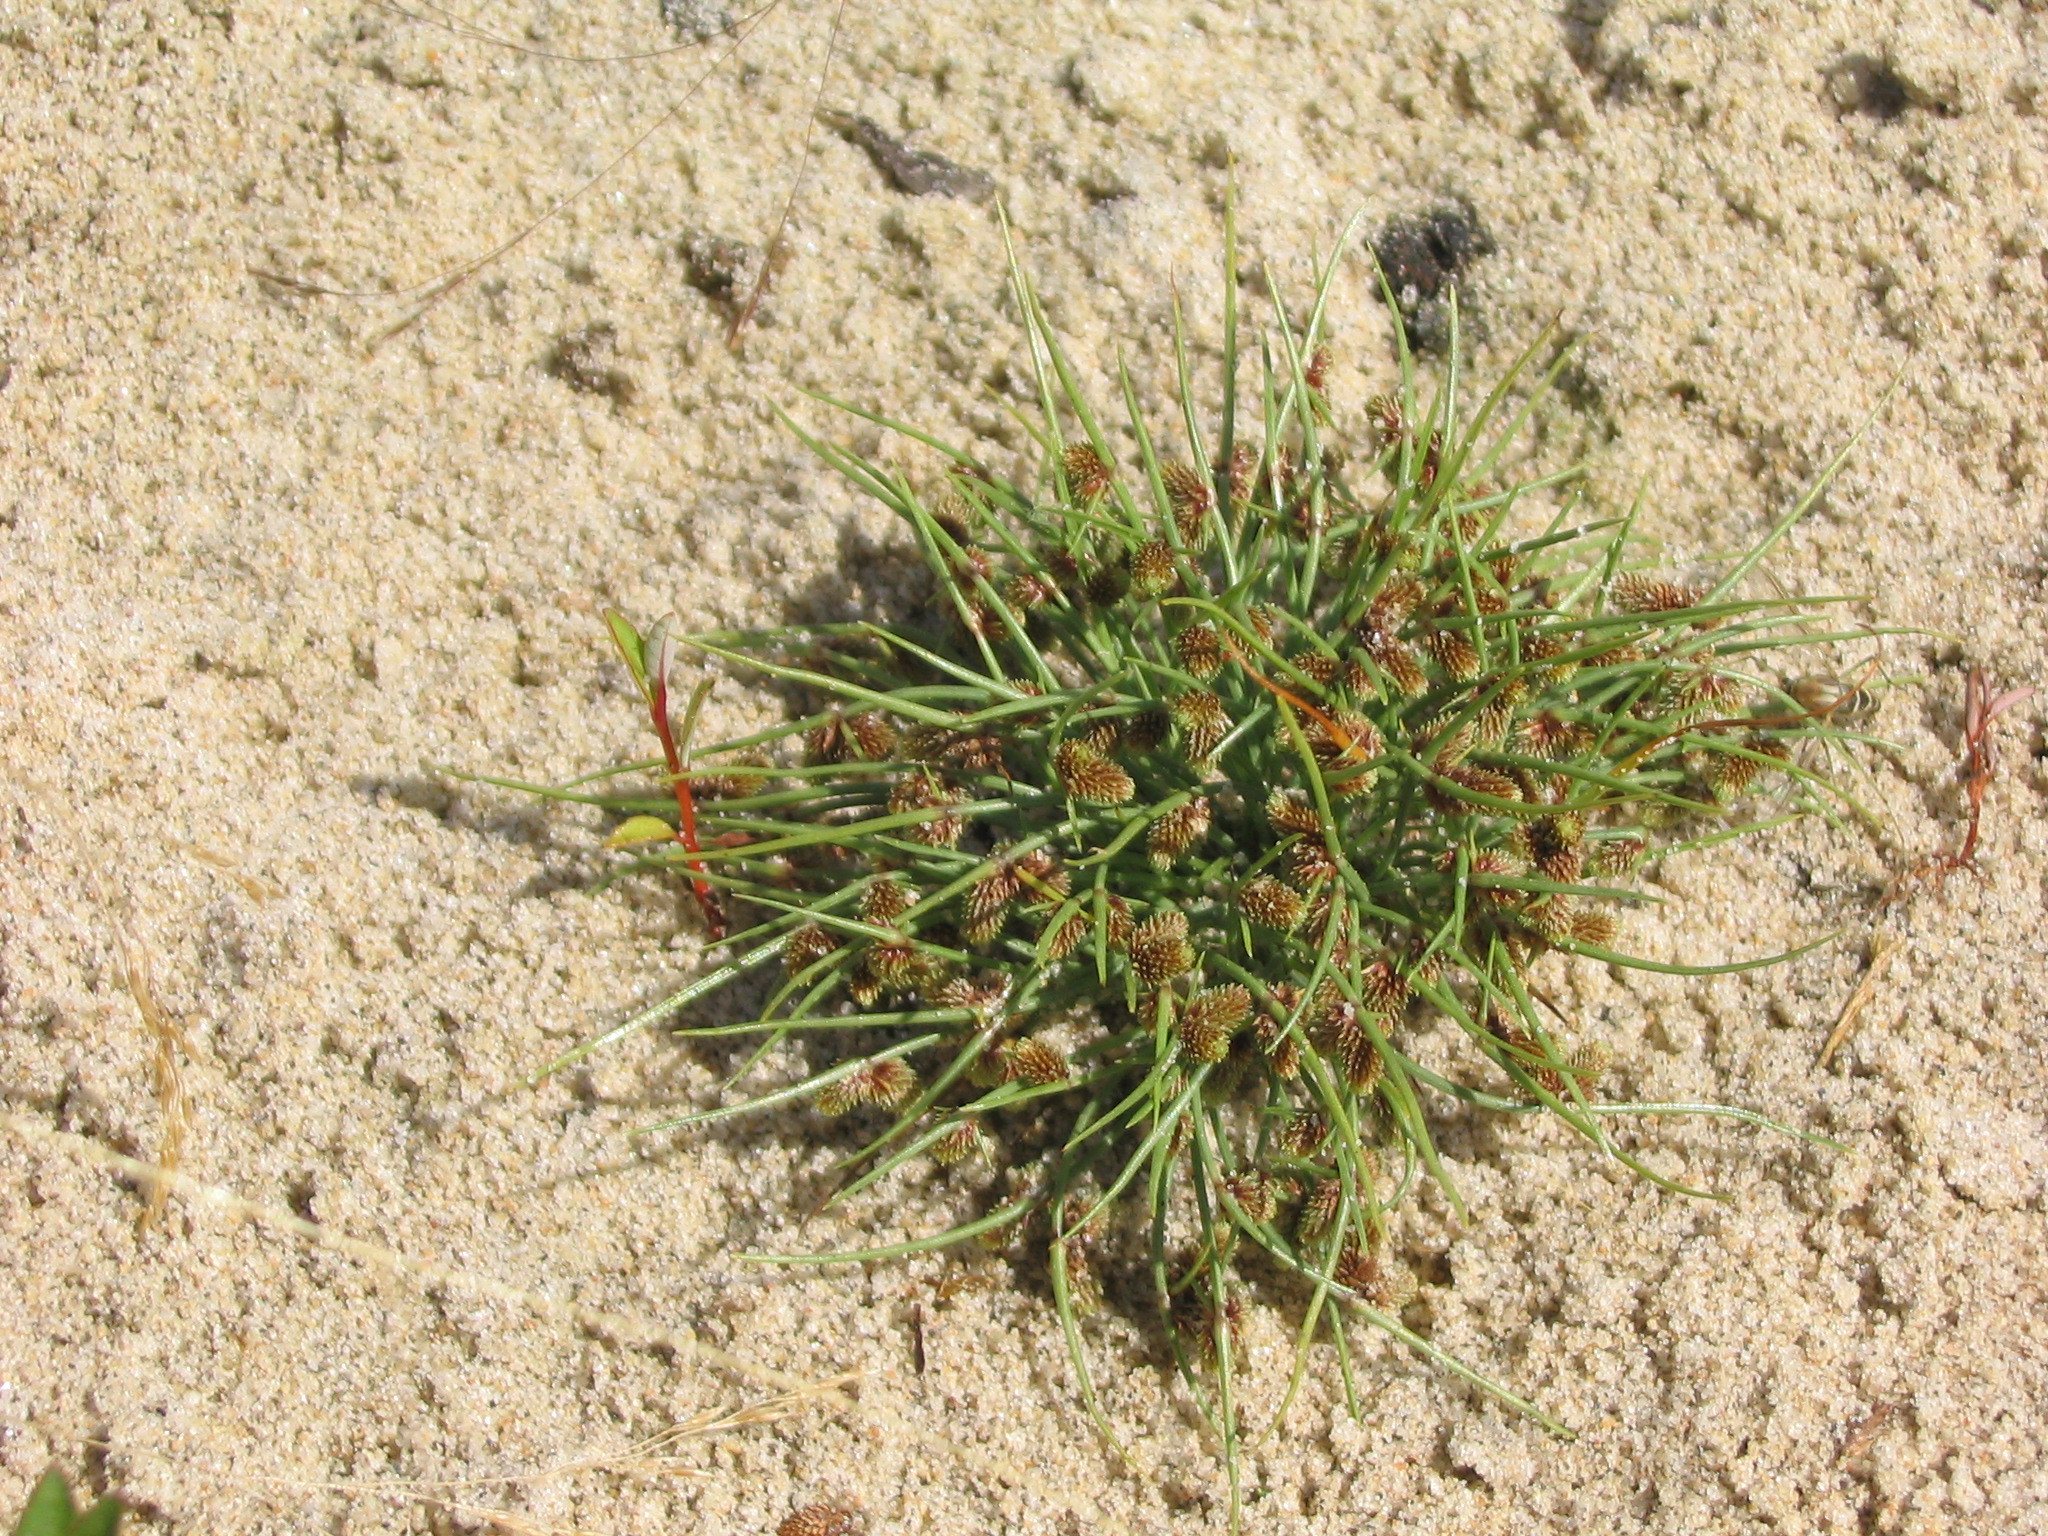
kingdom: Plantae
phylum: Tracheophyta
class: Liliopsida
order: Poales
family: Cyperaceae
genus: Cyperus
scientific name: Cyperus subsquarrosus
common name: Dwarf bulrush
